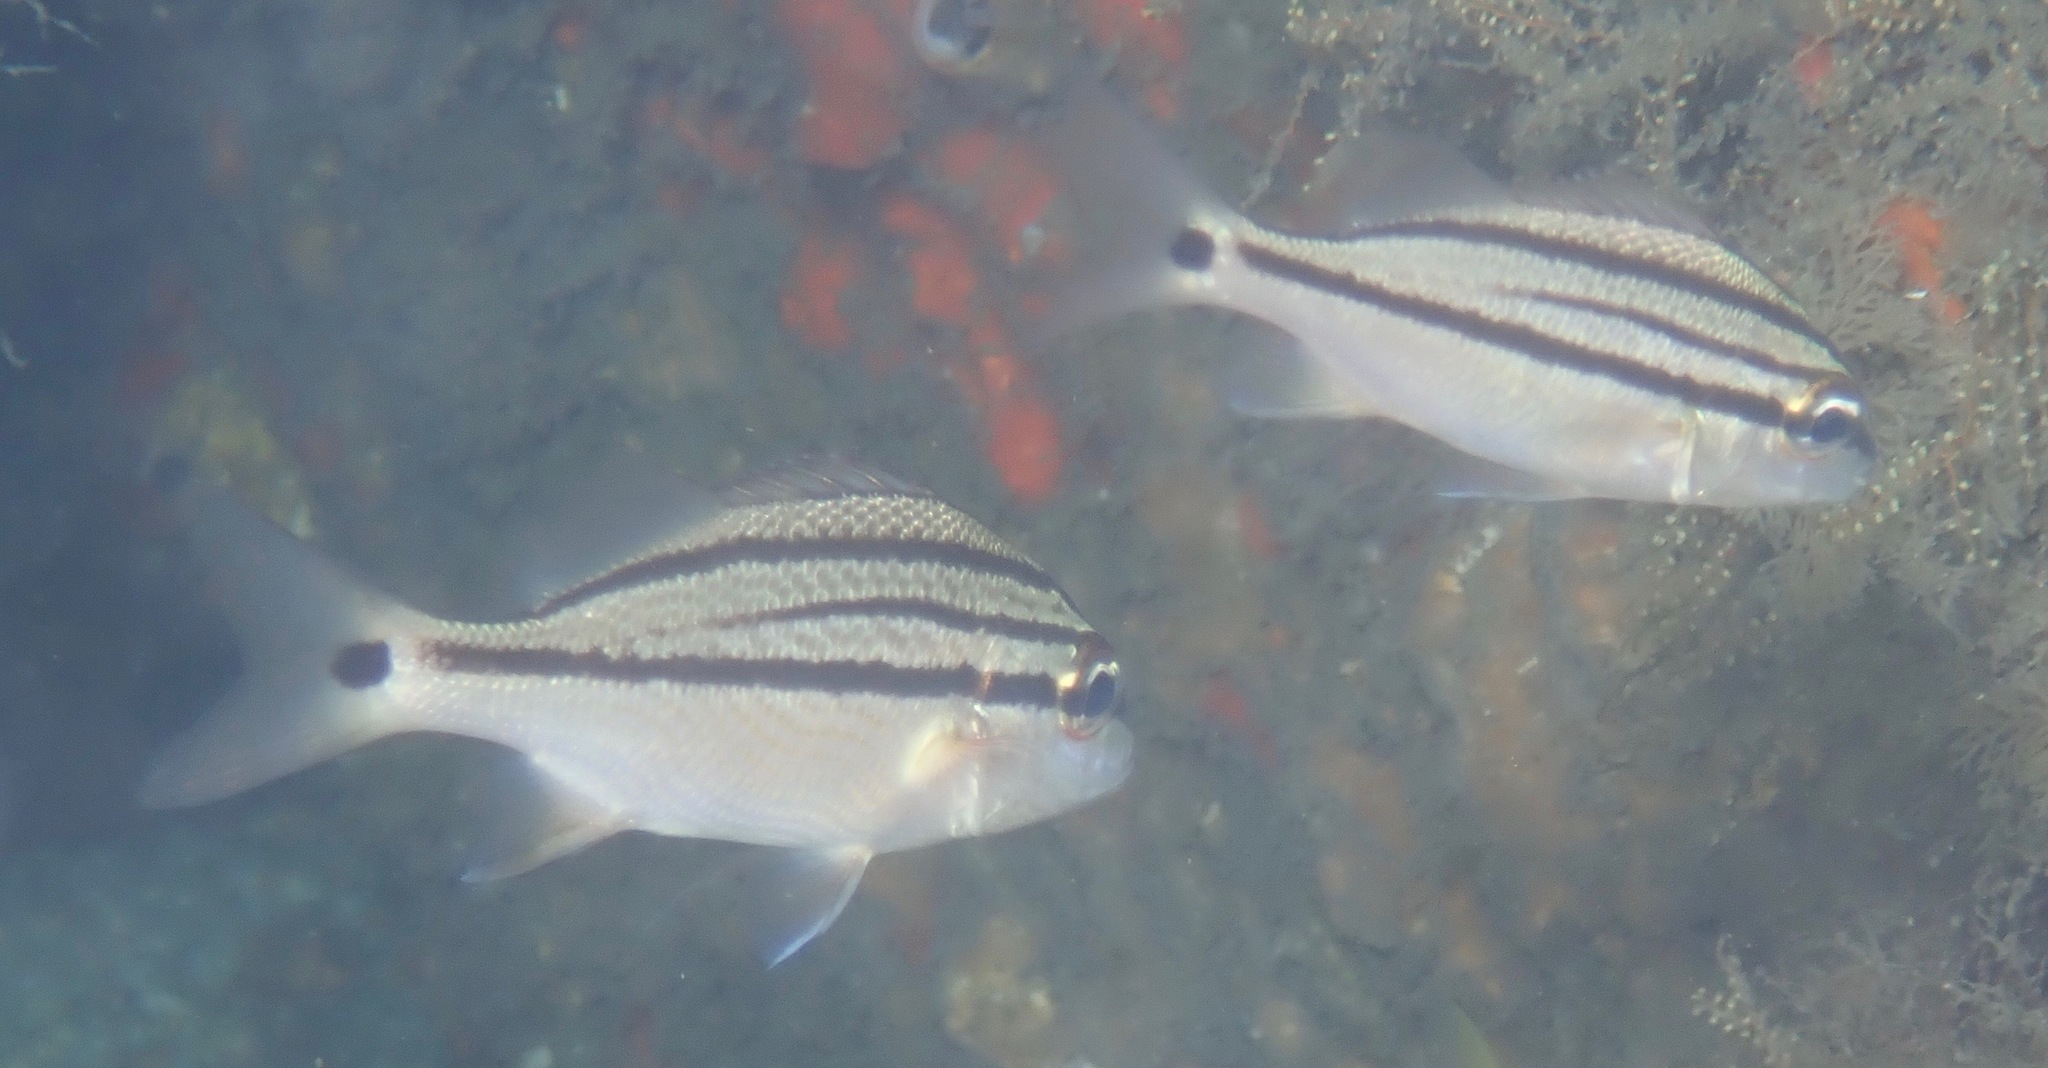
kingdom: Animalia
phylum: Chordata
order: Perciformes
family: Haemulidae
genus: Haemulon
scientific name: Haemulon parra
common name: Sailor's choice
